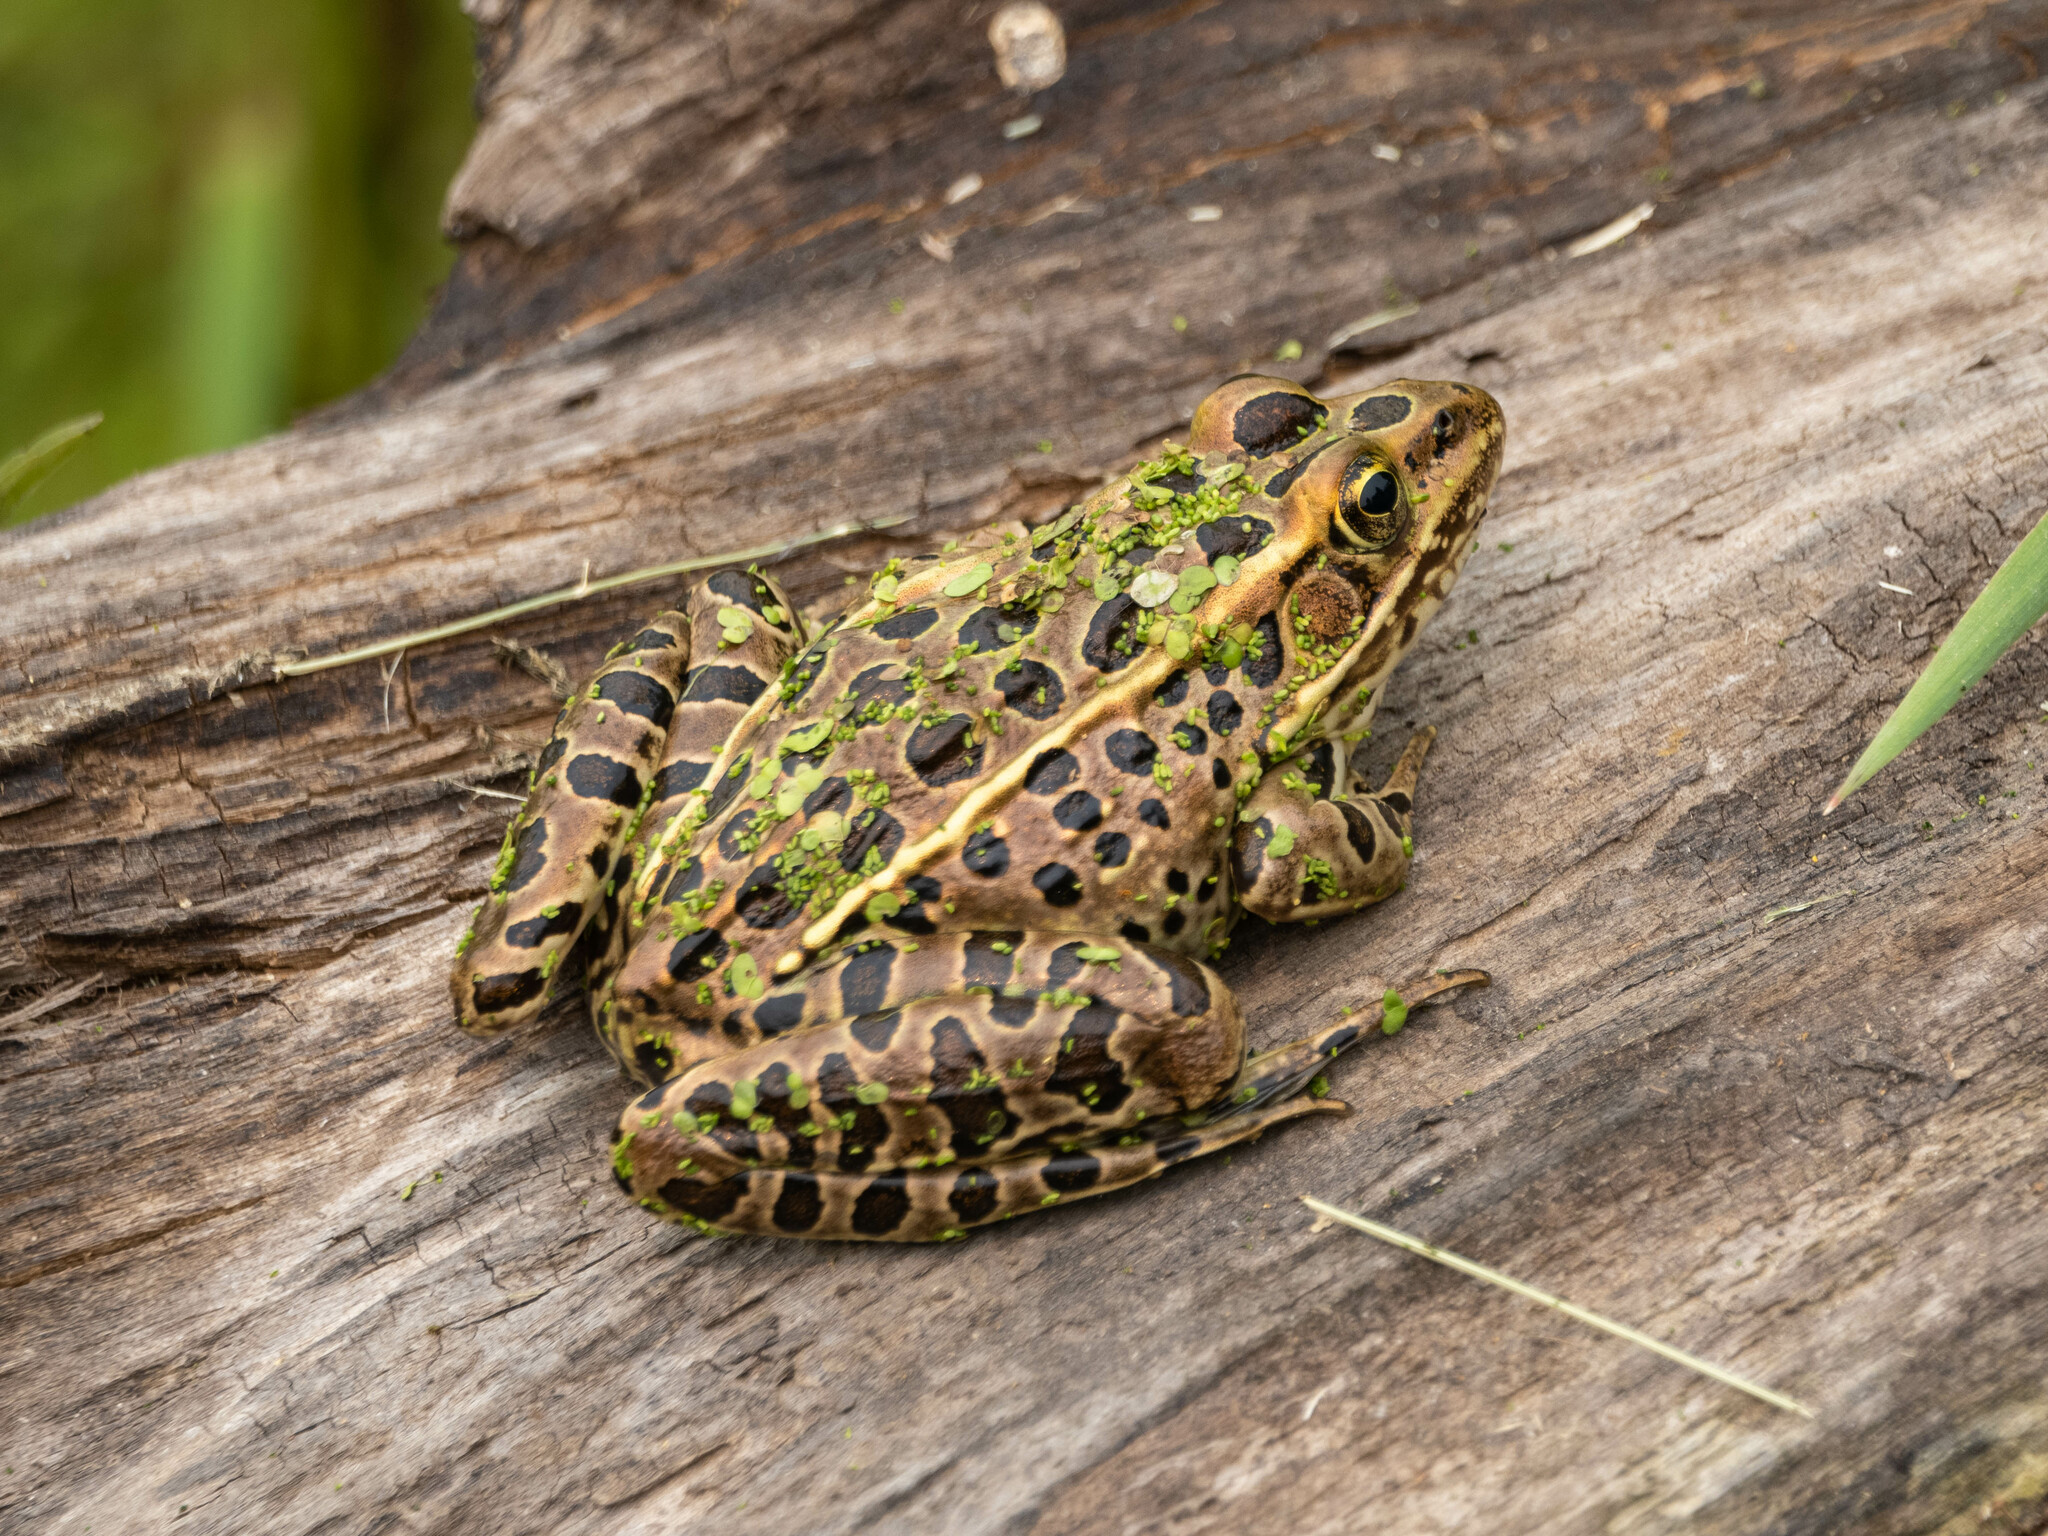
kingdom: Animalia
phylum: Chordata
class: Amphibia
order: Anura
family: Ranidae
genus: Lithobates
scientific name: Lithobates pipiens
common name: Northern leopard frog
